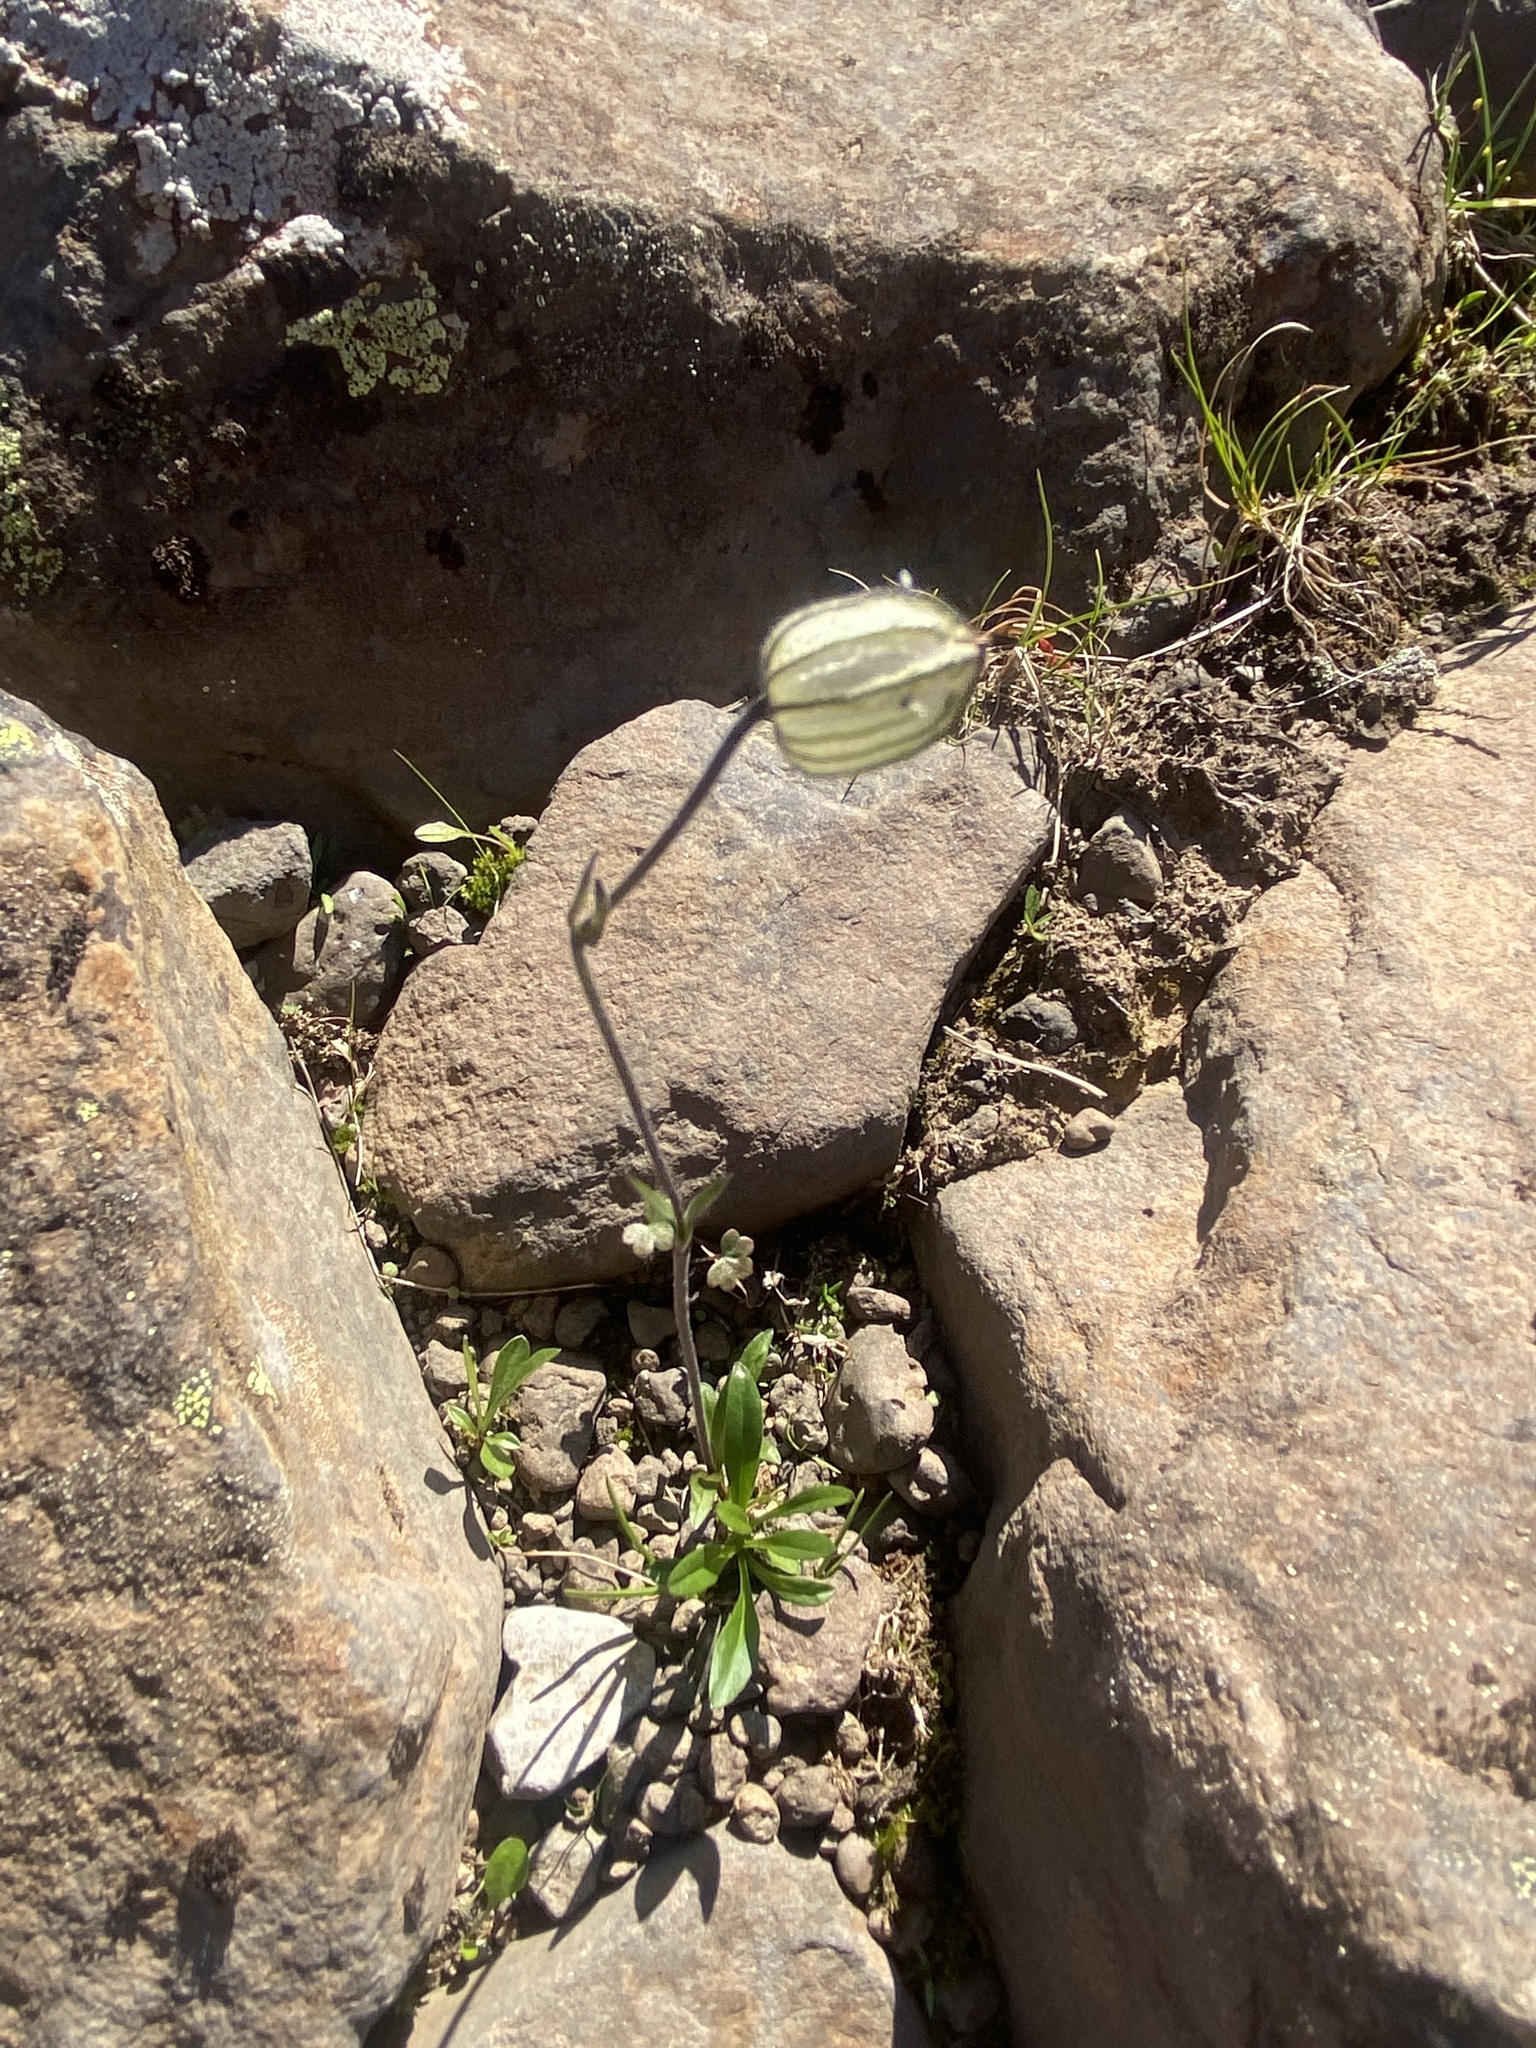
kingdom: Plantae
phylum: Tracheophyta
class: Magnoliopsida
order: Caryophyllales
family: Caryophyllaceae
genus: Silene
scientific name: Silene wahlbergella
